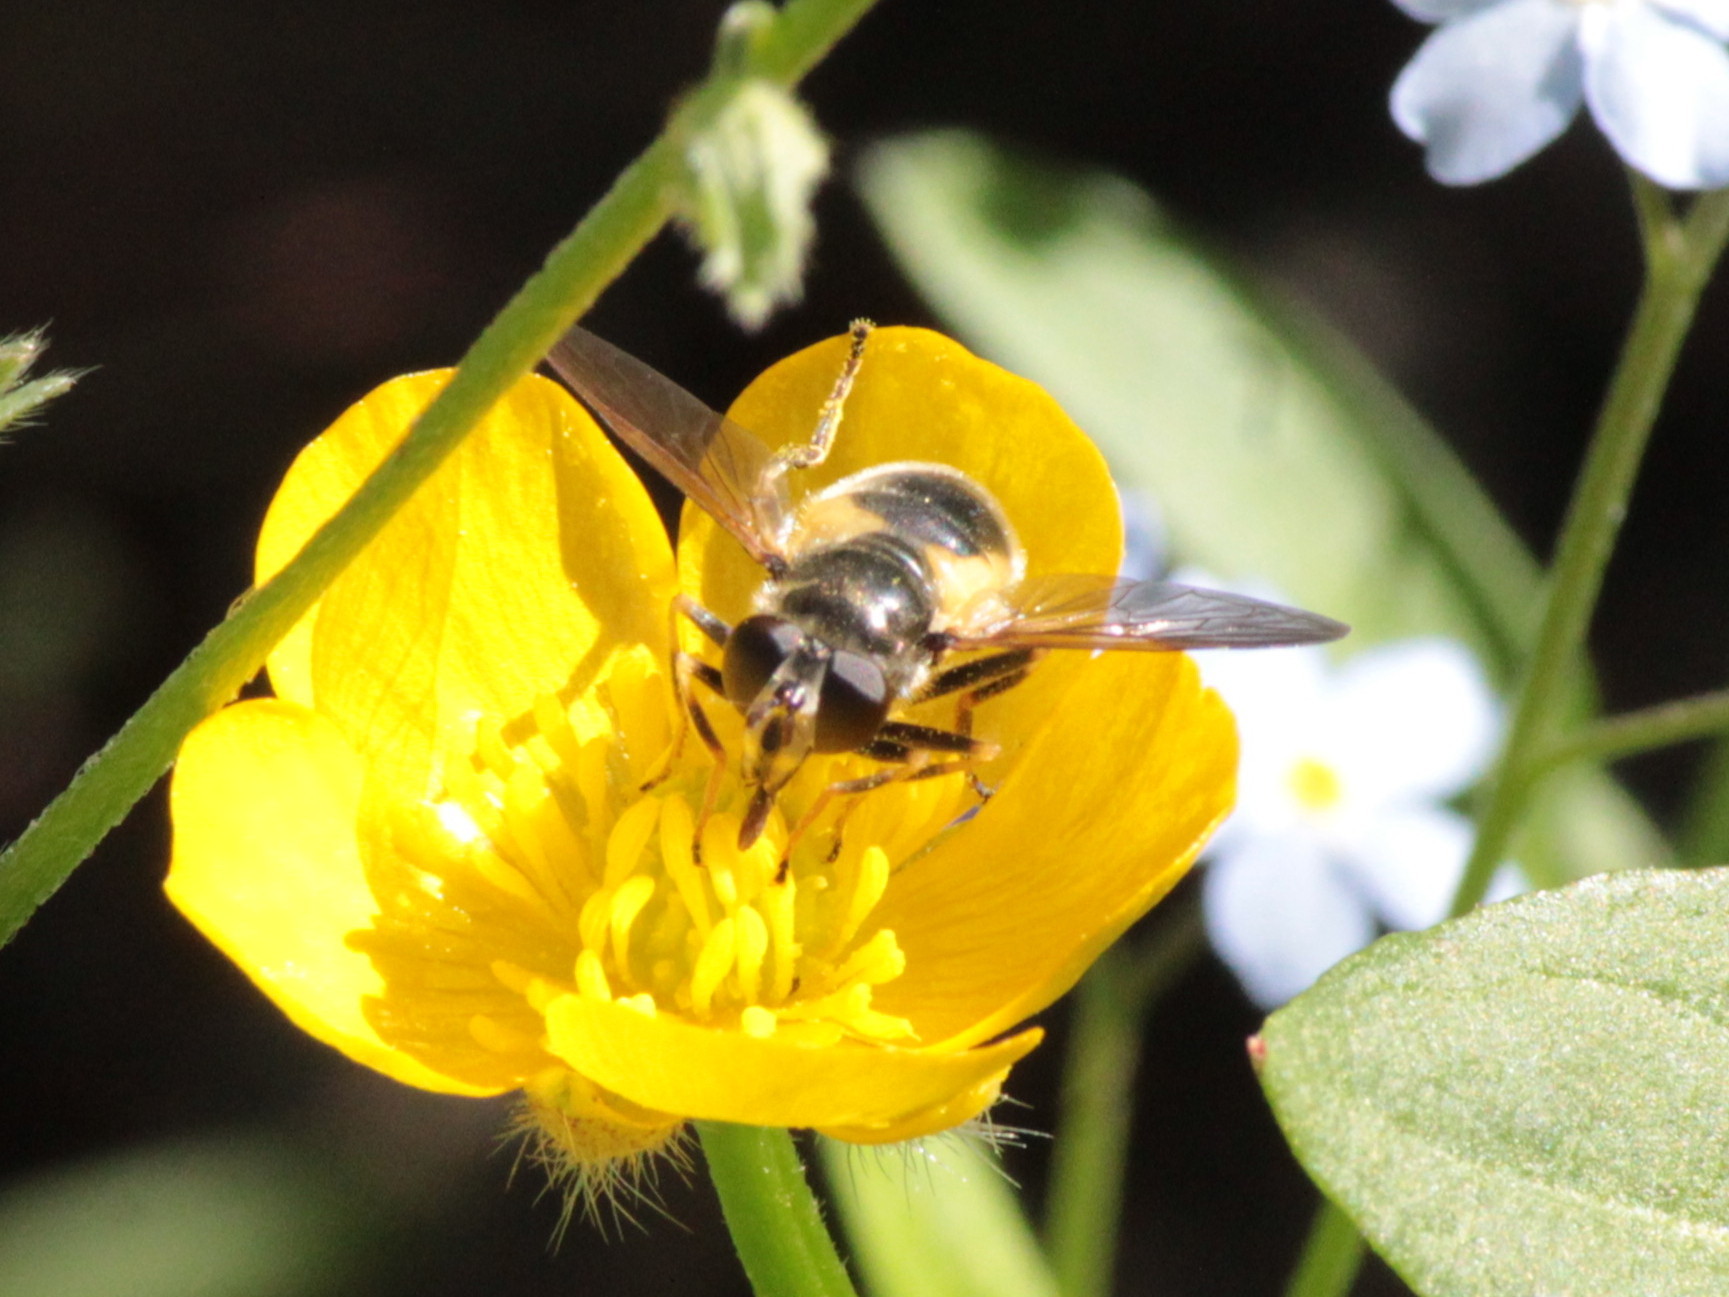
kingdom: Animalia
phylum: Arthropoda
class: Insecta
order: Diptera
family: Syrphidae
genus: Blera
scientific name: Blera confusa
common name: Confusing wood fly
